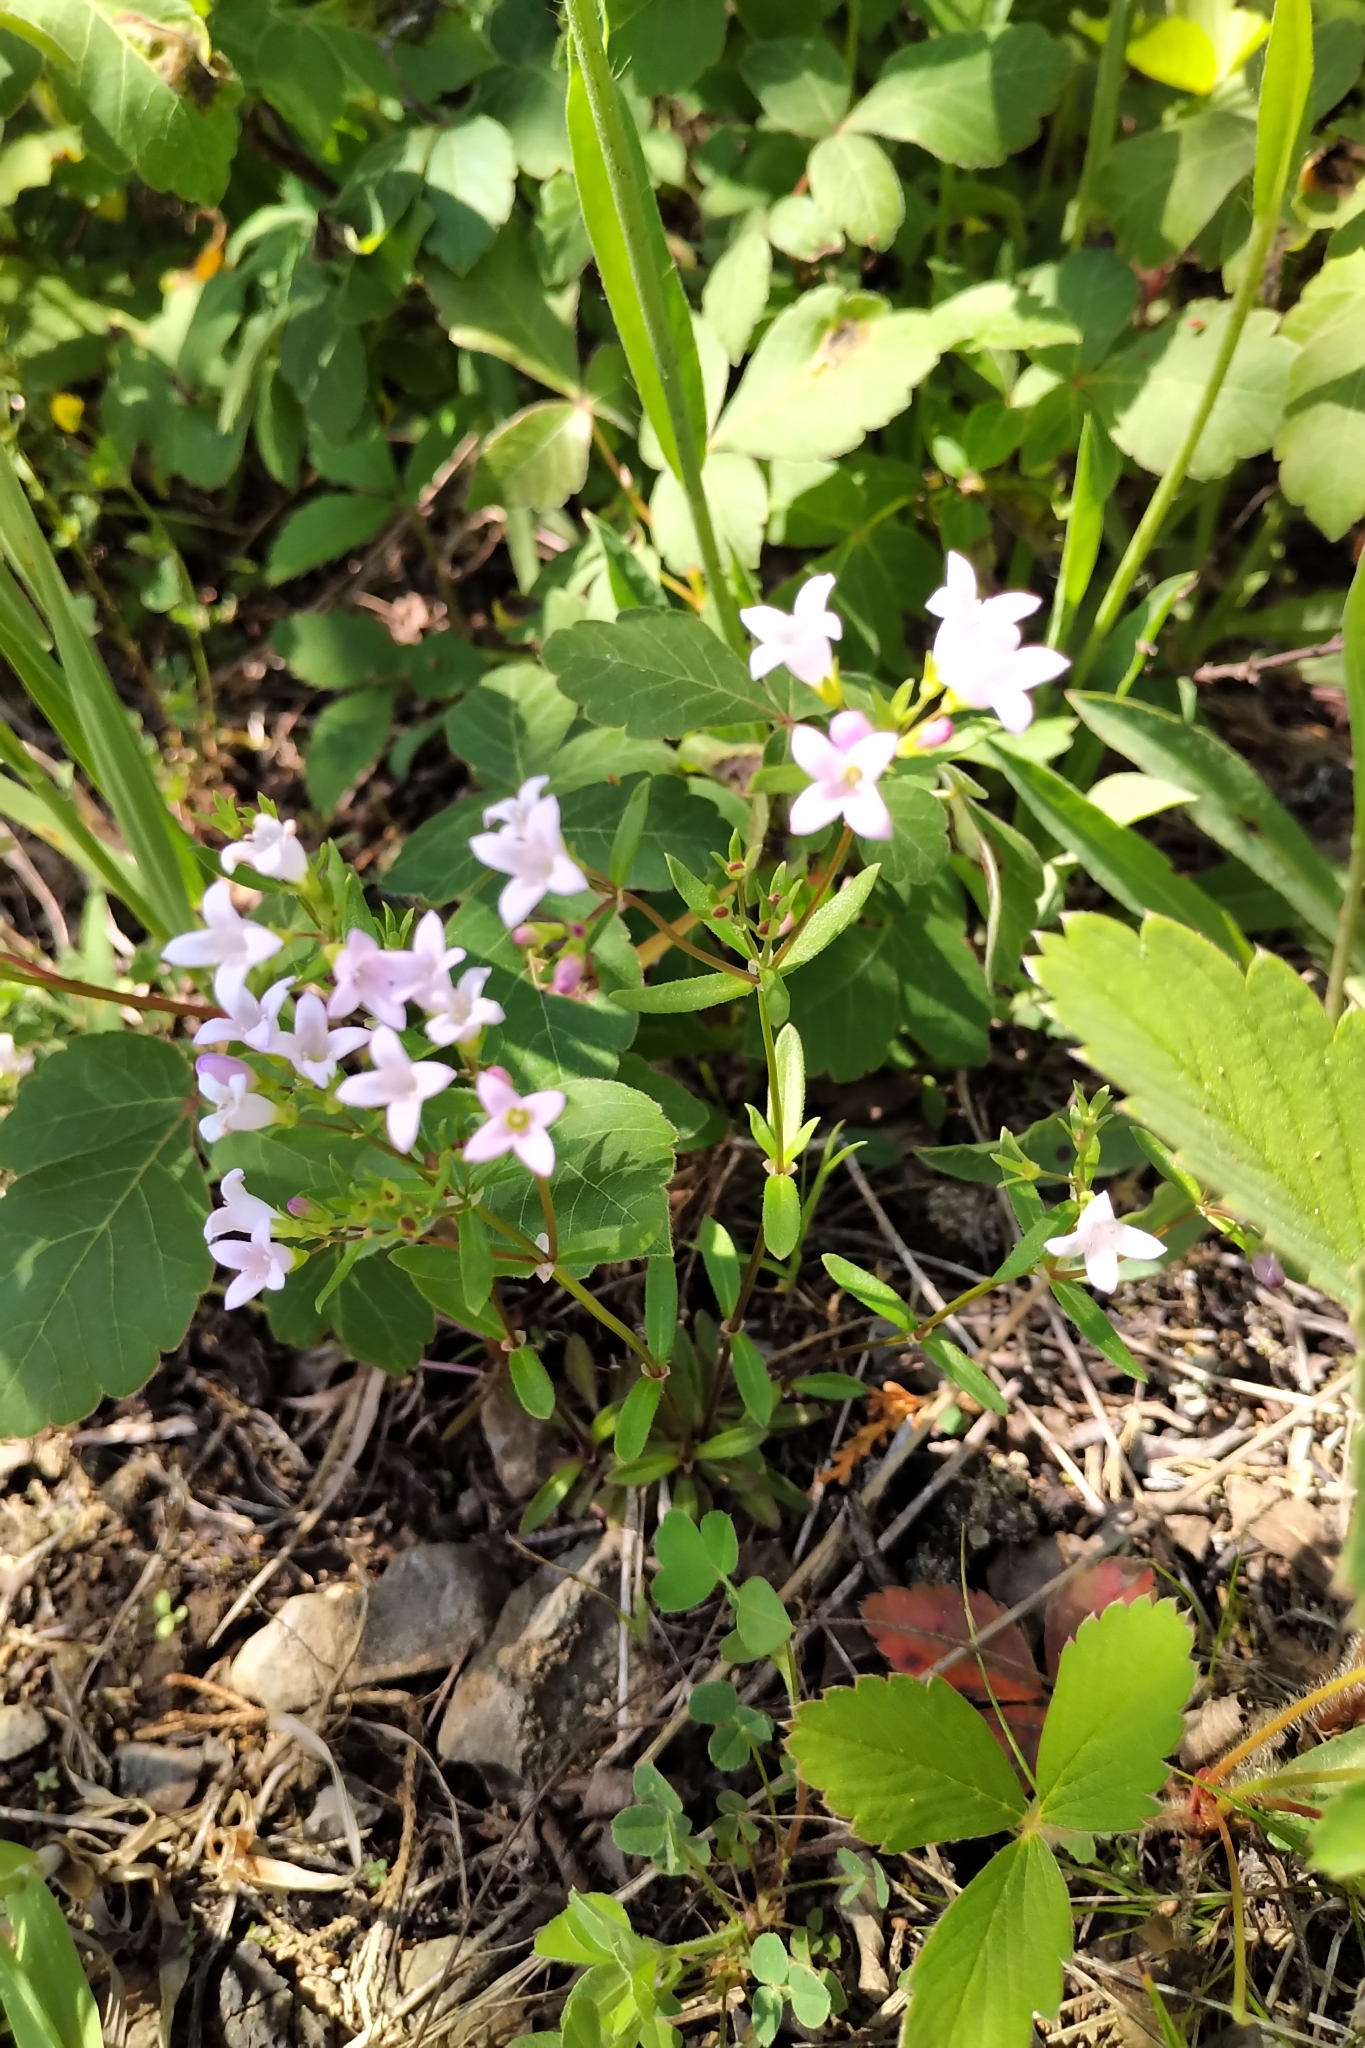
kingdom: Plantae
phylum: Tracheophyta
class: Magnoliopsida
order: Gentianales
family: Rubiaceae
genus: Houstonia
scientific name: Houstonia canadensis
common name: Fringed houstonia
